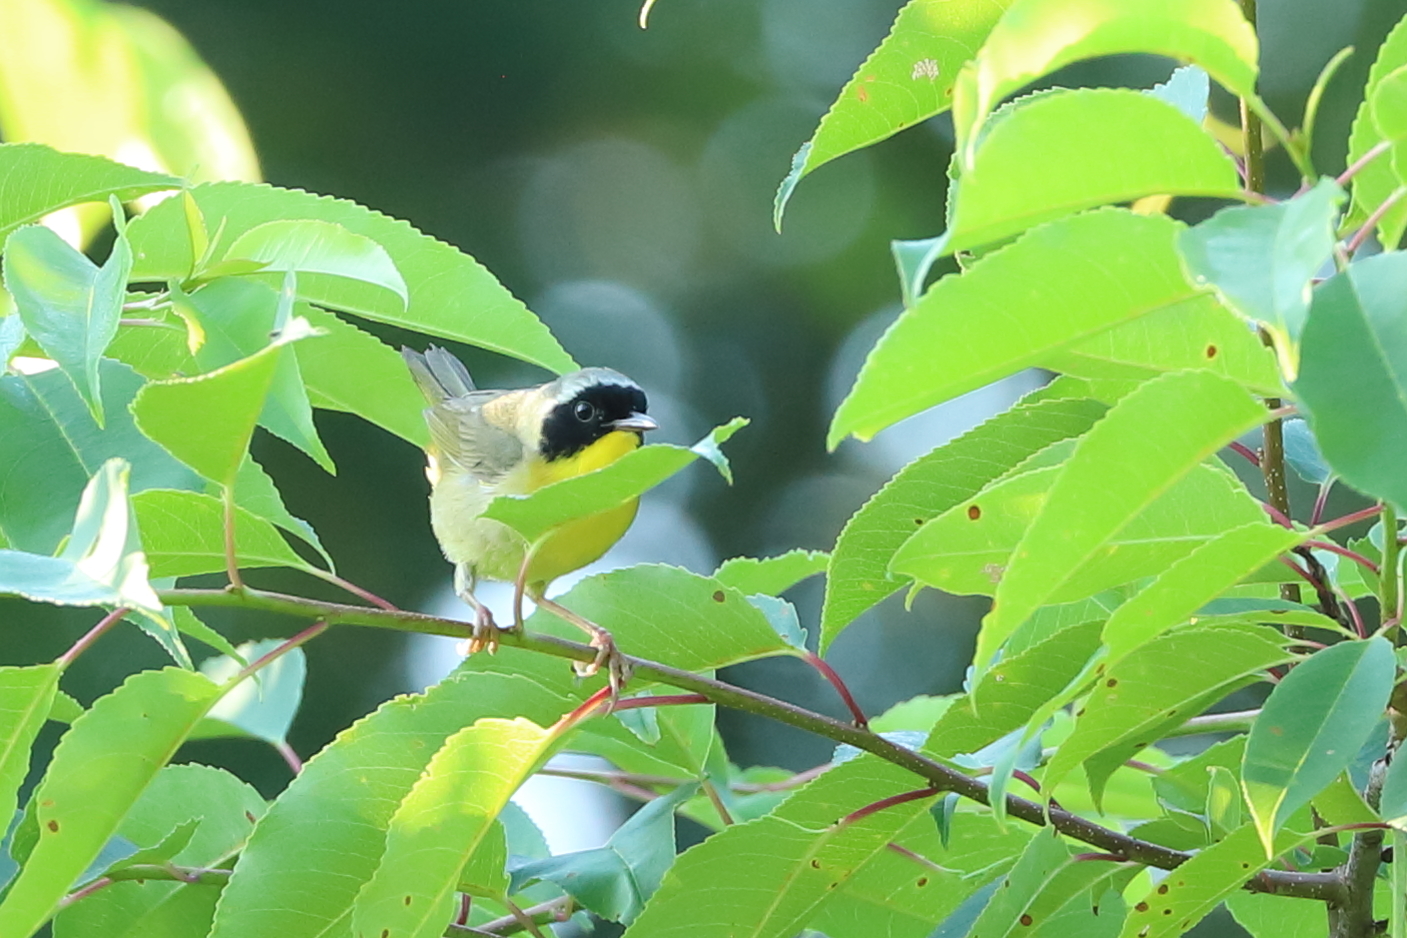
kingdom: Animalia
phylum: Chordata
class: Aves
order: Passeriformes
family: Parulidae
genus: Geothlypis
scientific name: Geothlypis trichas
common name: Common yellowthroat
